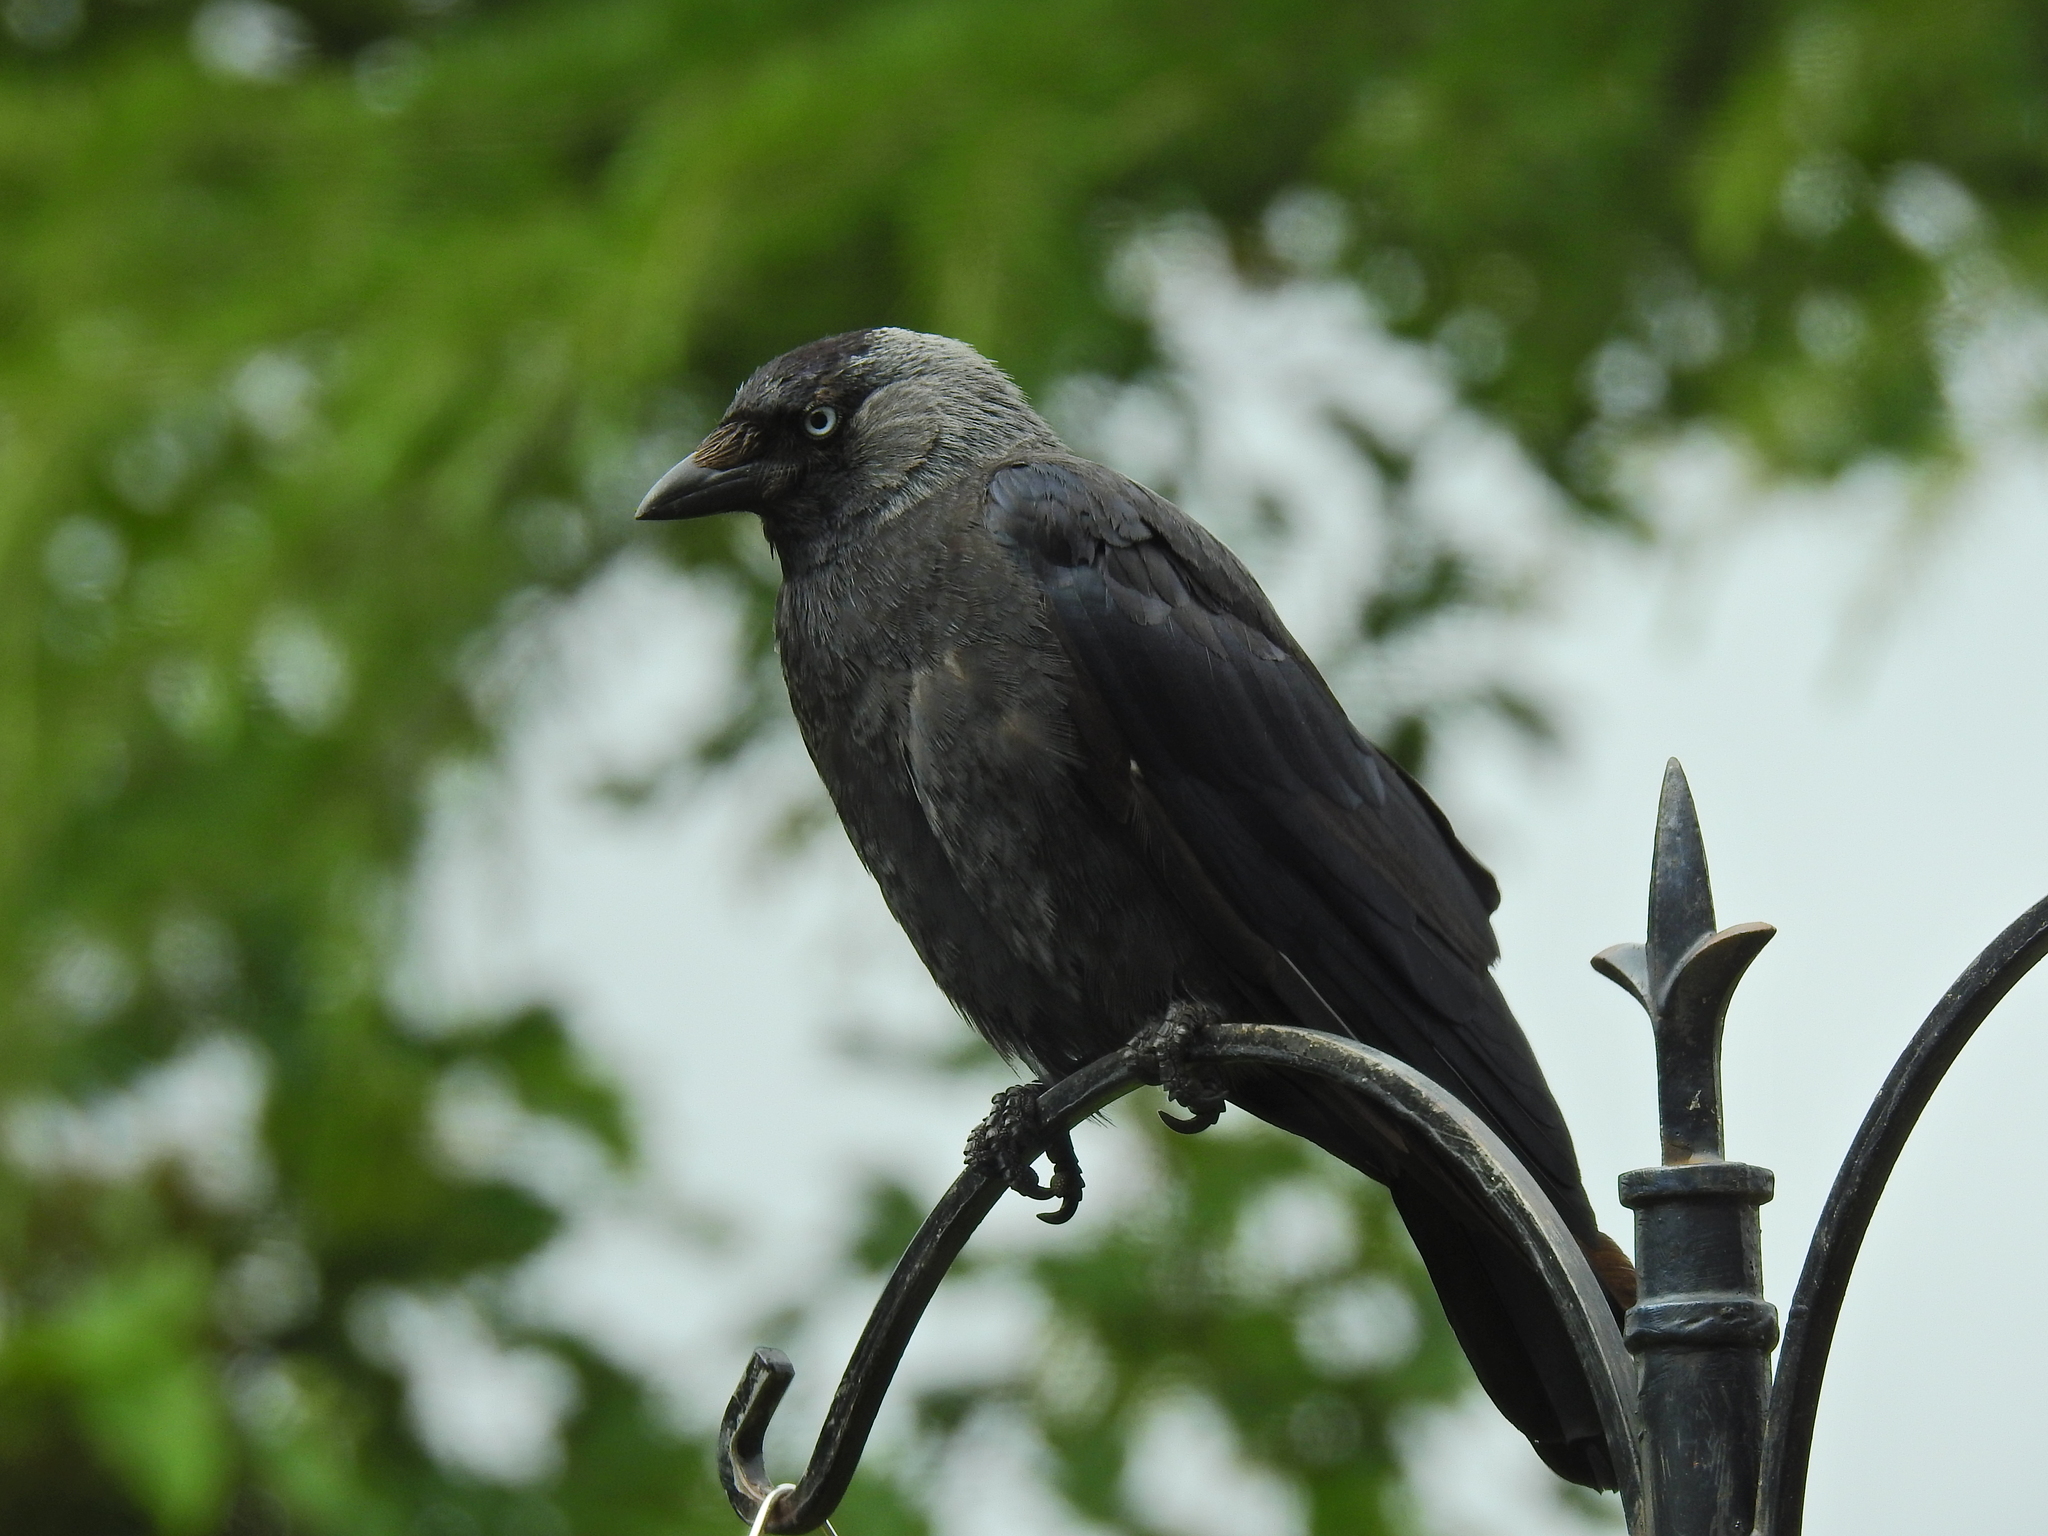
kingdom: Animalia
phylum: Chordata
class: Aves
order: Passeriformes
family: Corvidae
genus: Coloeus
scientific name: Coloeus monedula
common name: Western jackdaw
